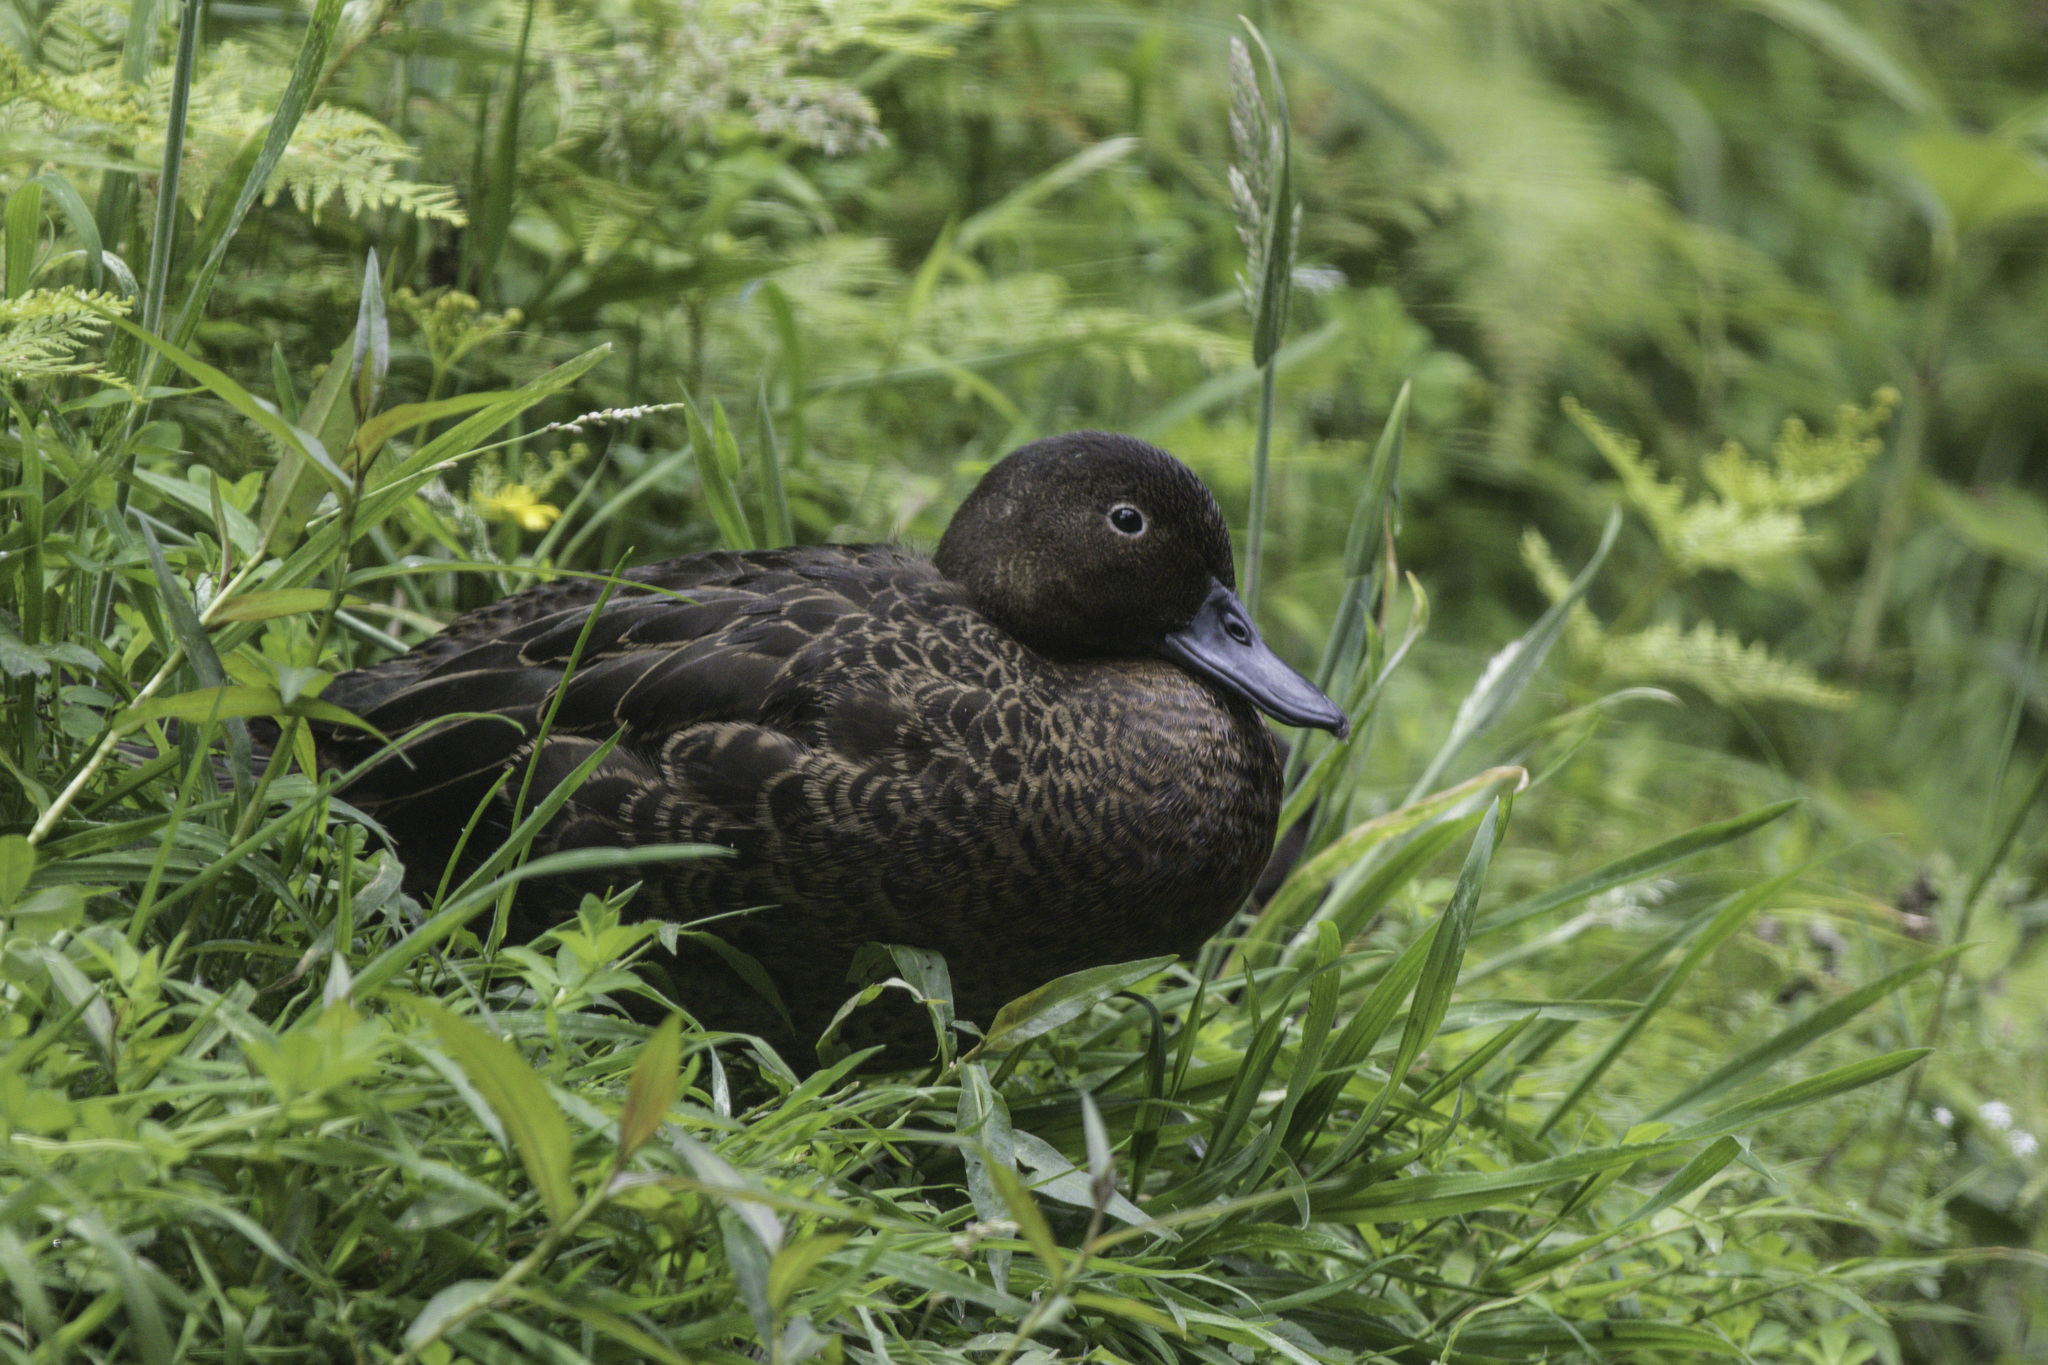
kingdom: Animalia
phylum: Chordata
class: Aves
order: Anseriformes
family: Anatidae
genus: Anas
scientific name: Anas chlorotis
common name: Brown teal
